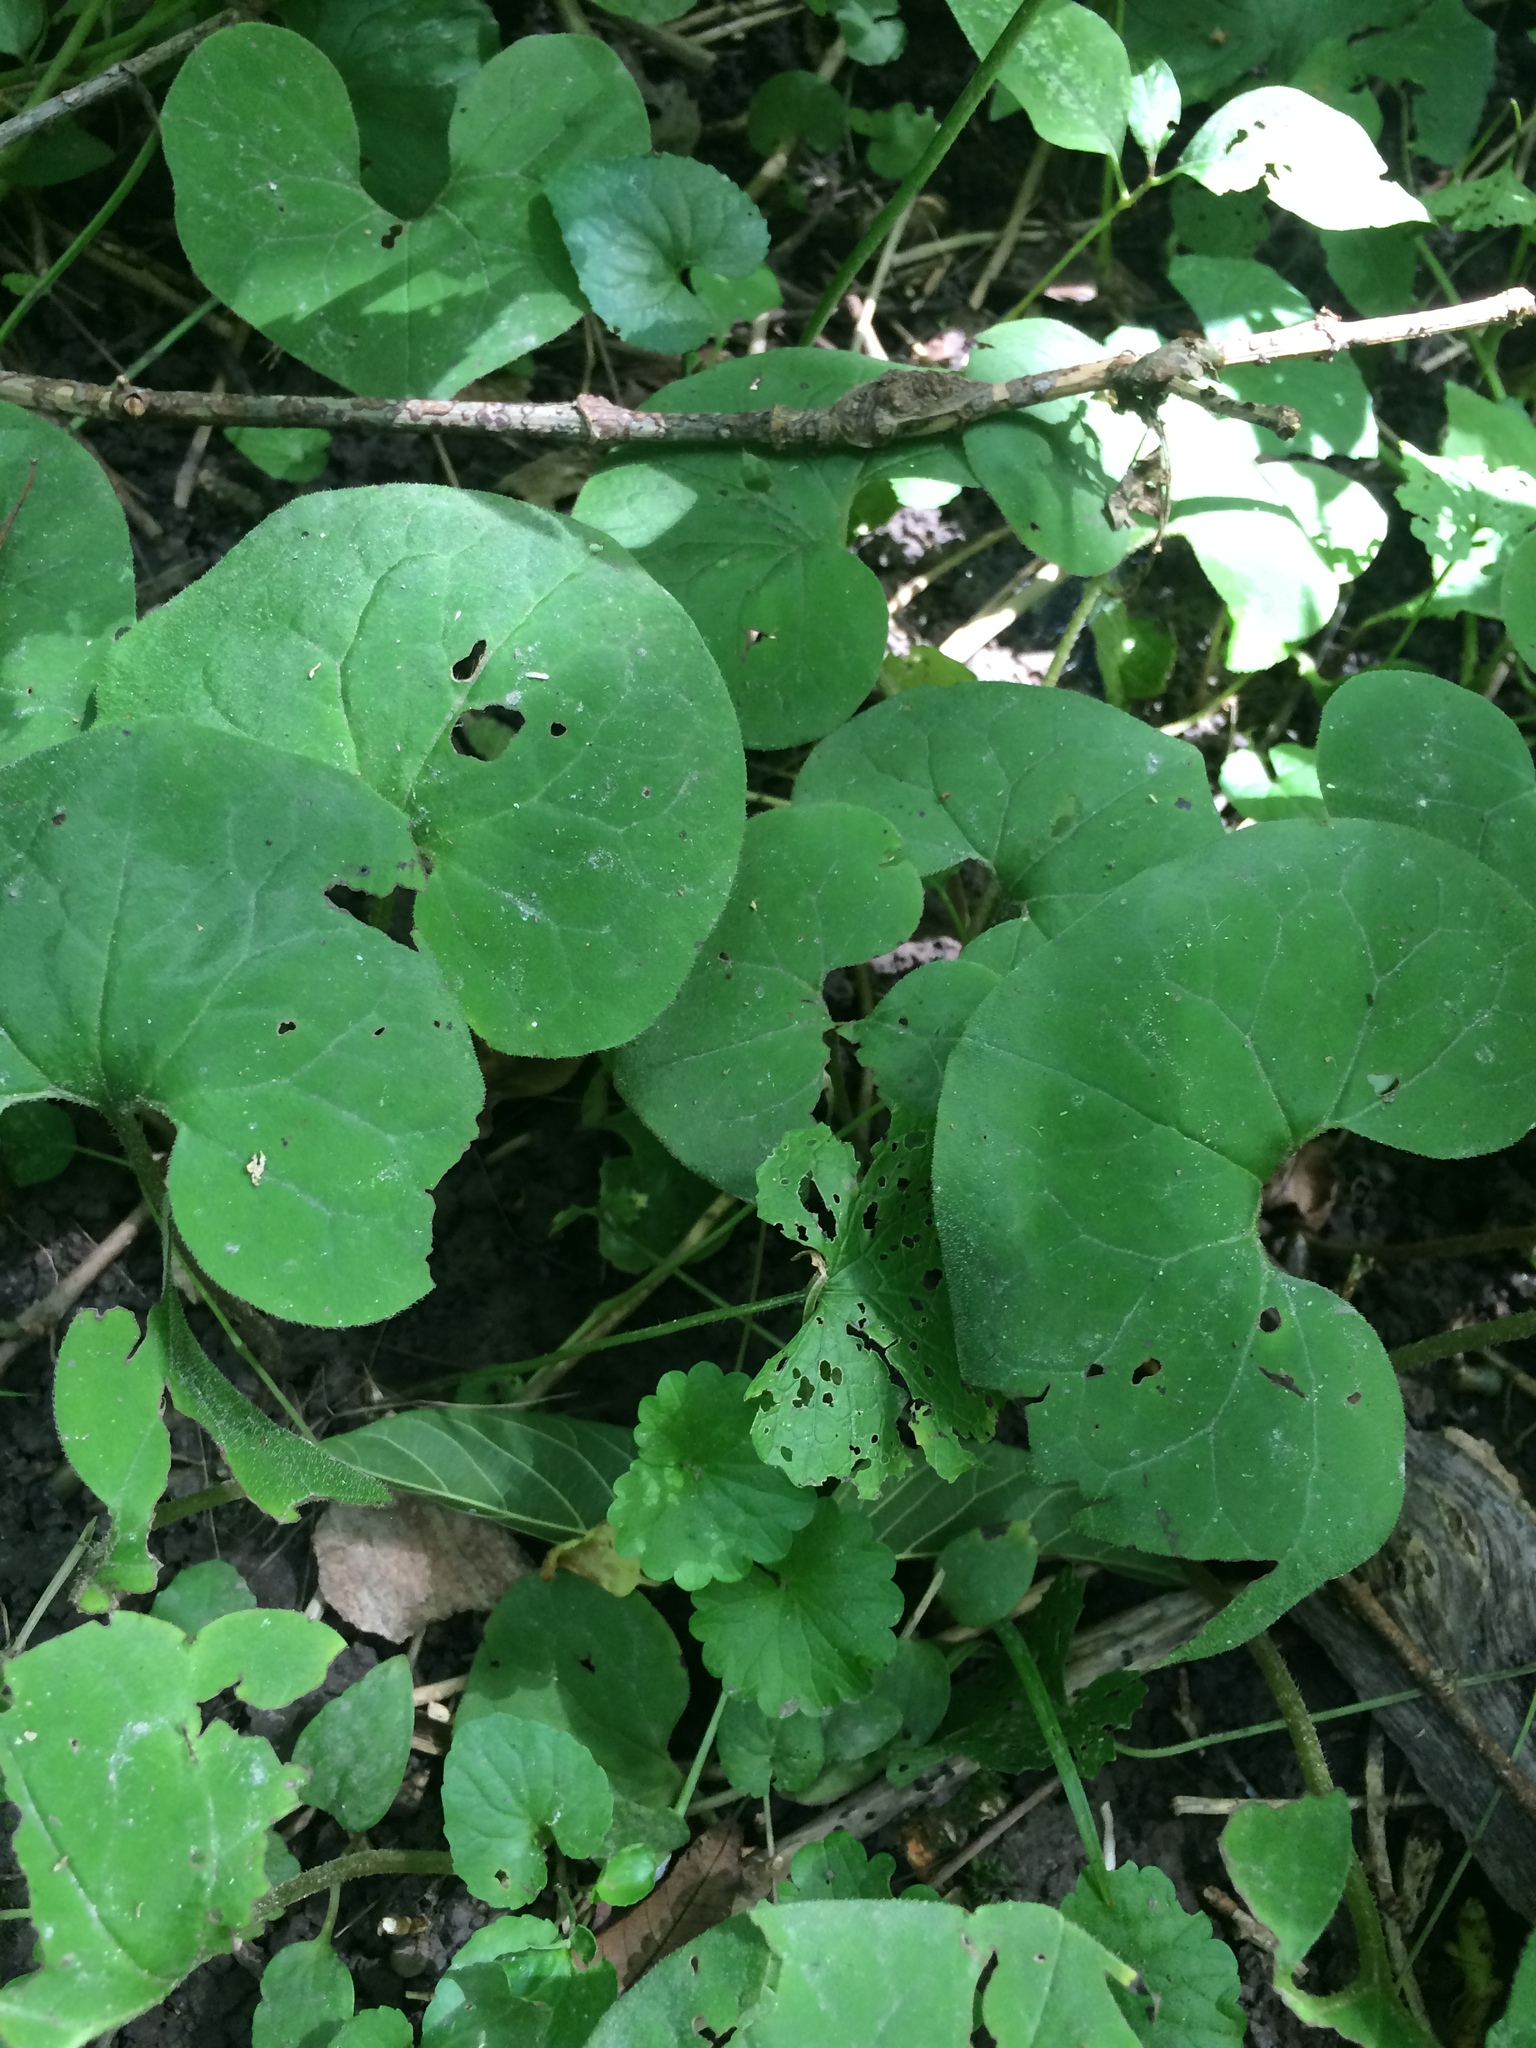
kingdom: Plantae
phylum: Tracheophyta
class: Magnoliopsida
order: Piperales
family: Aristolochiaceae
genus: Asarum
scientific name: Asarum canadense
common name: Wild ginger
